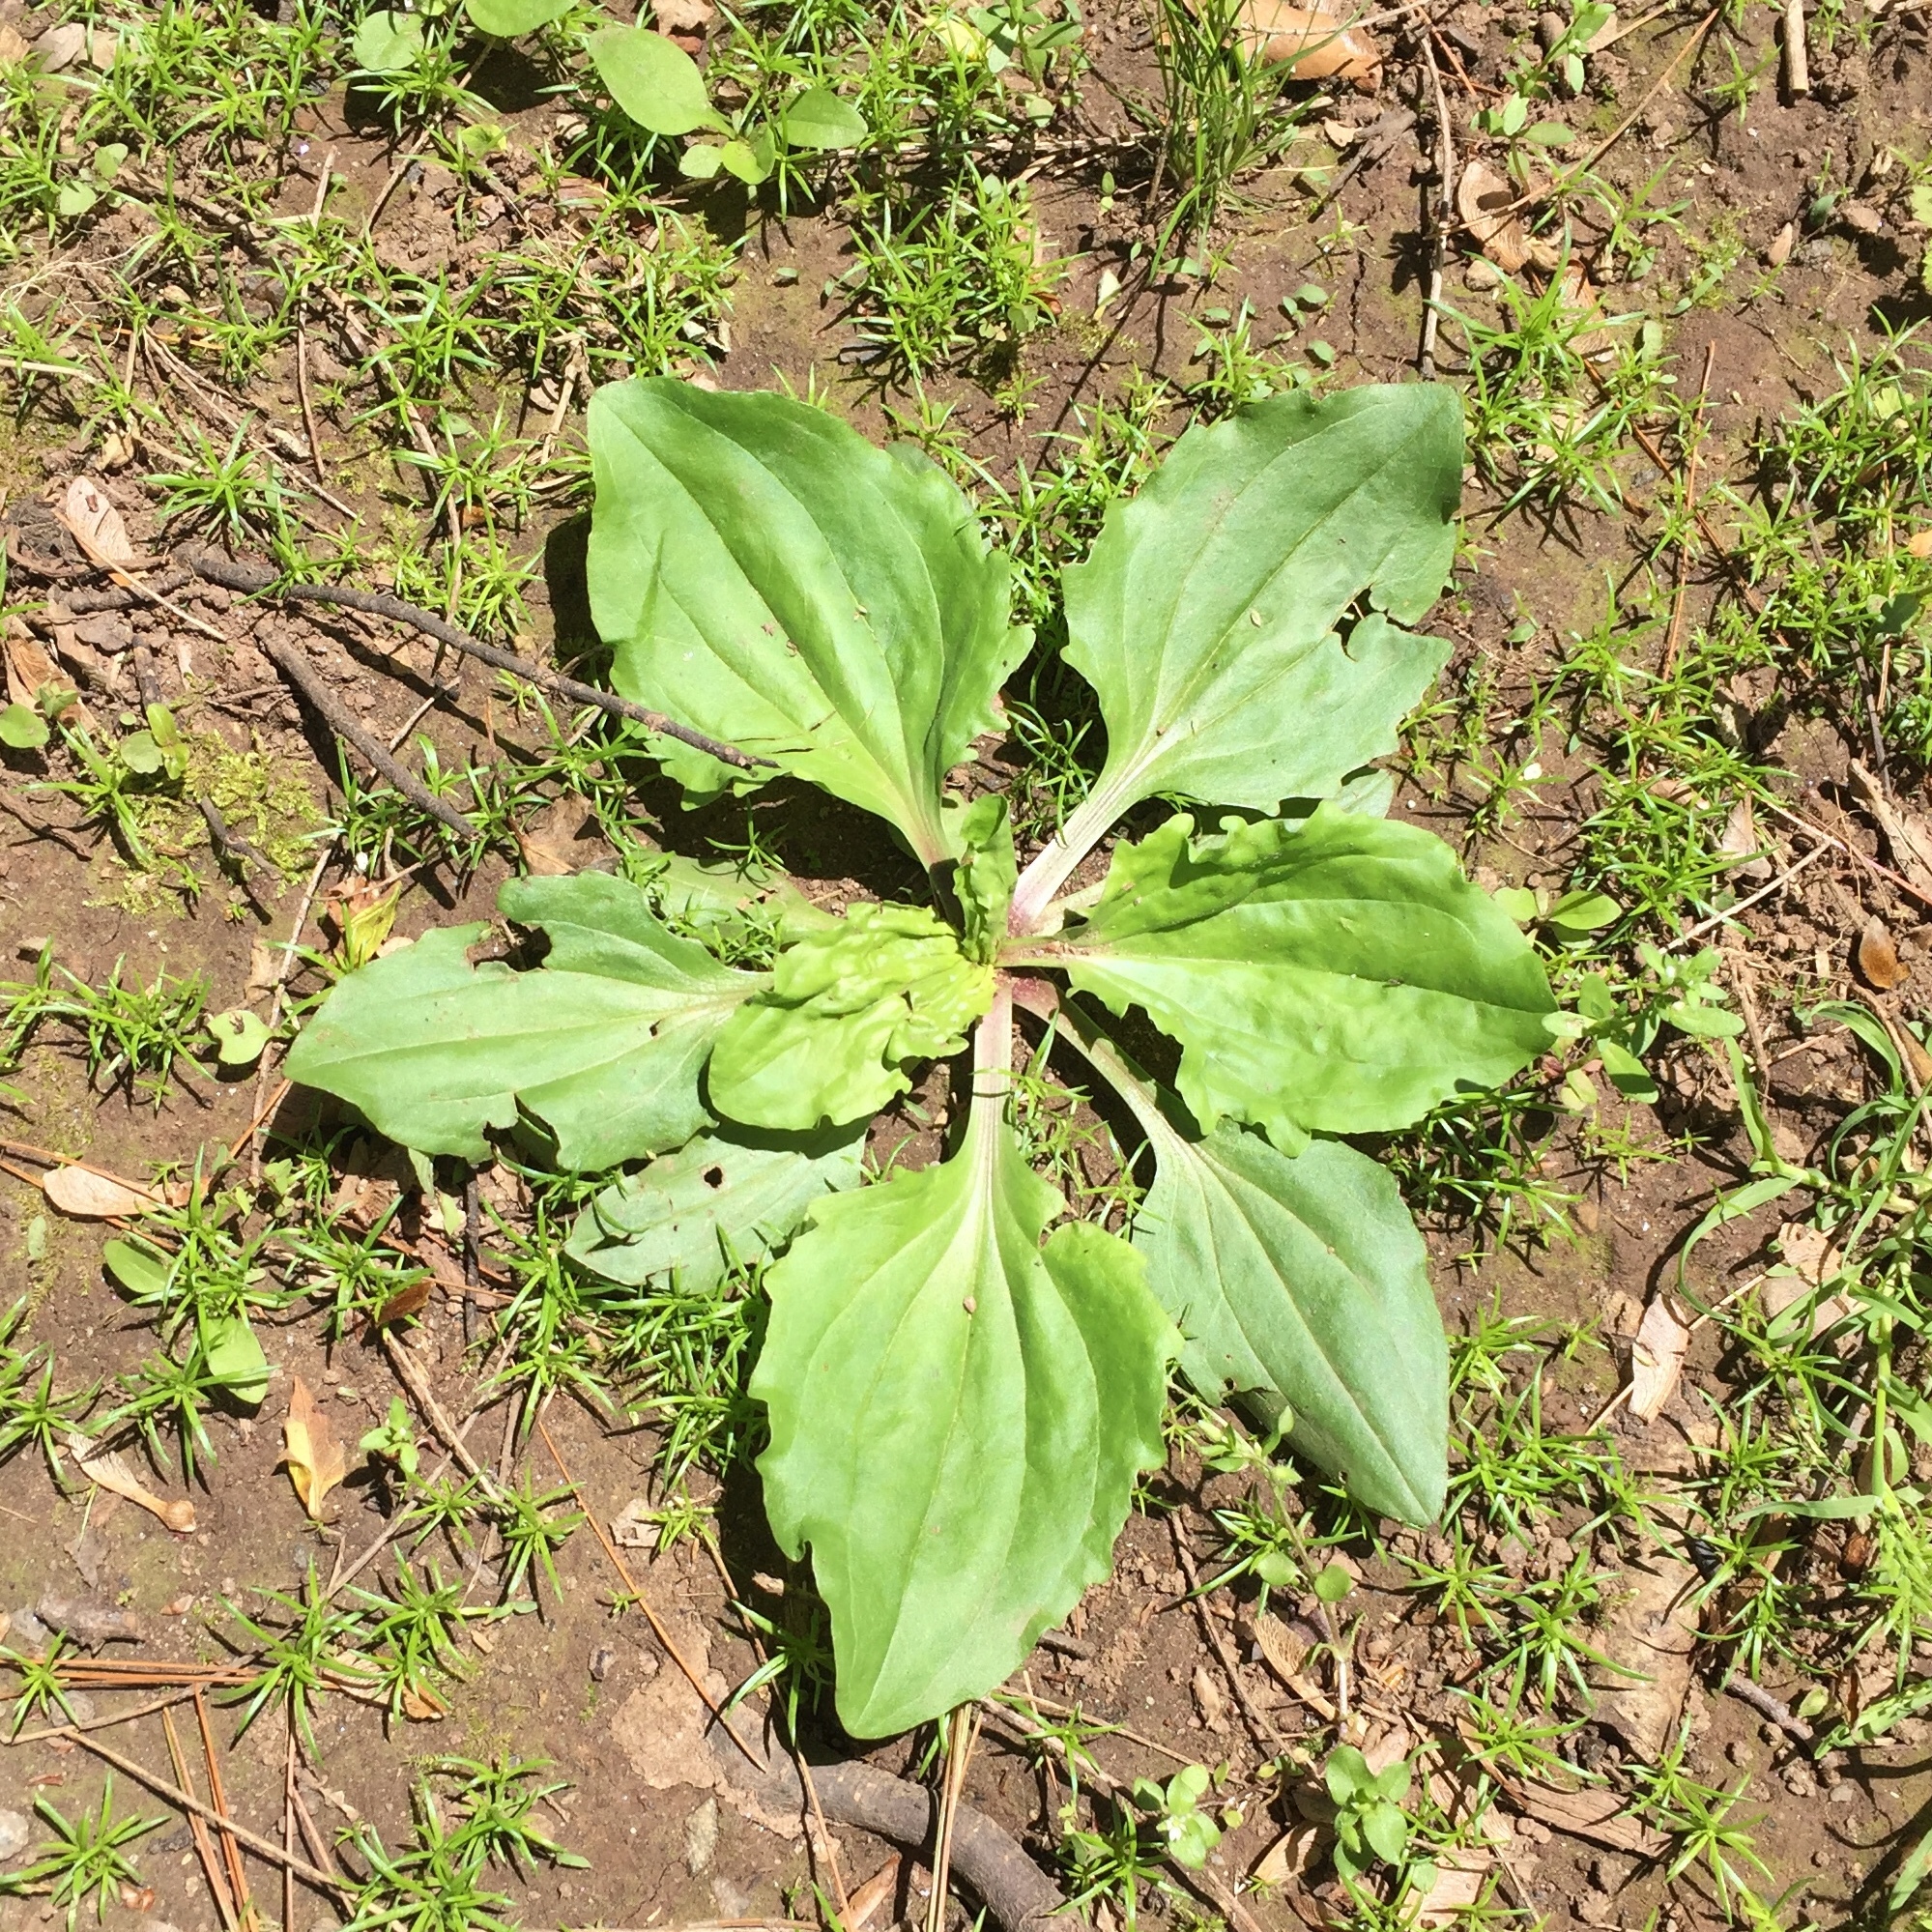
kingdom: Plantae
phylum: Tracheophyta
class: Magnoliopsida
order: Lamiales
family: Plantaginaceae
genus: Plantago
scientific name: Plantago rugelii
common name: American plantain
